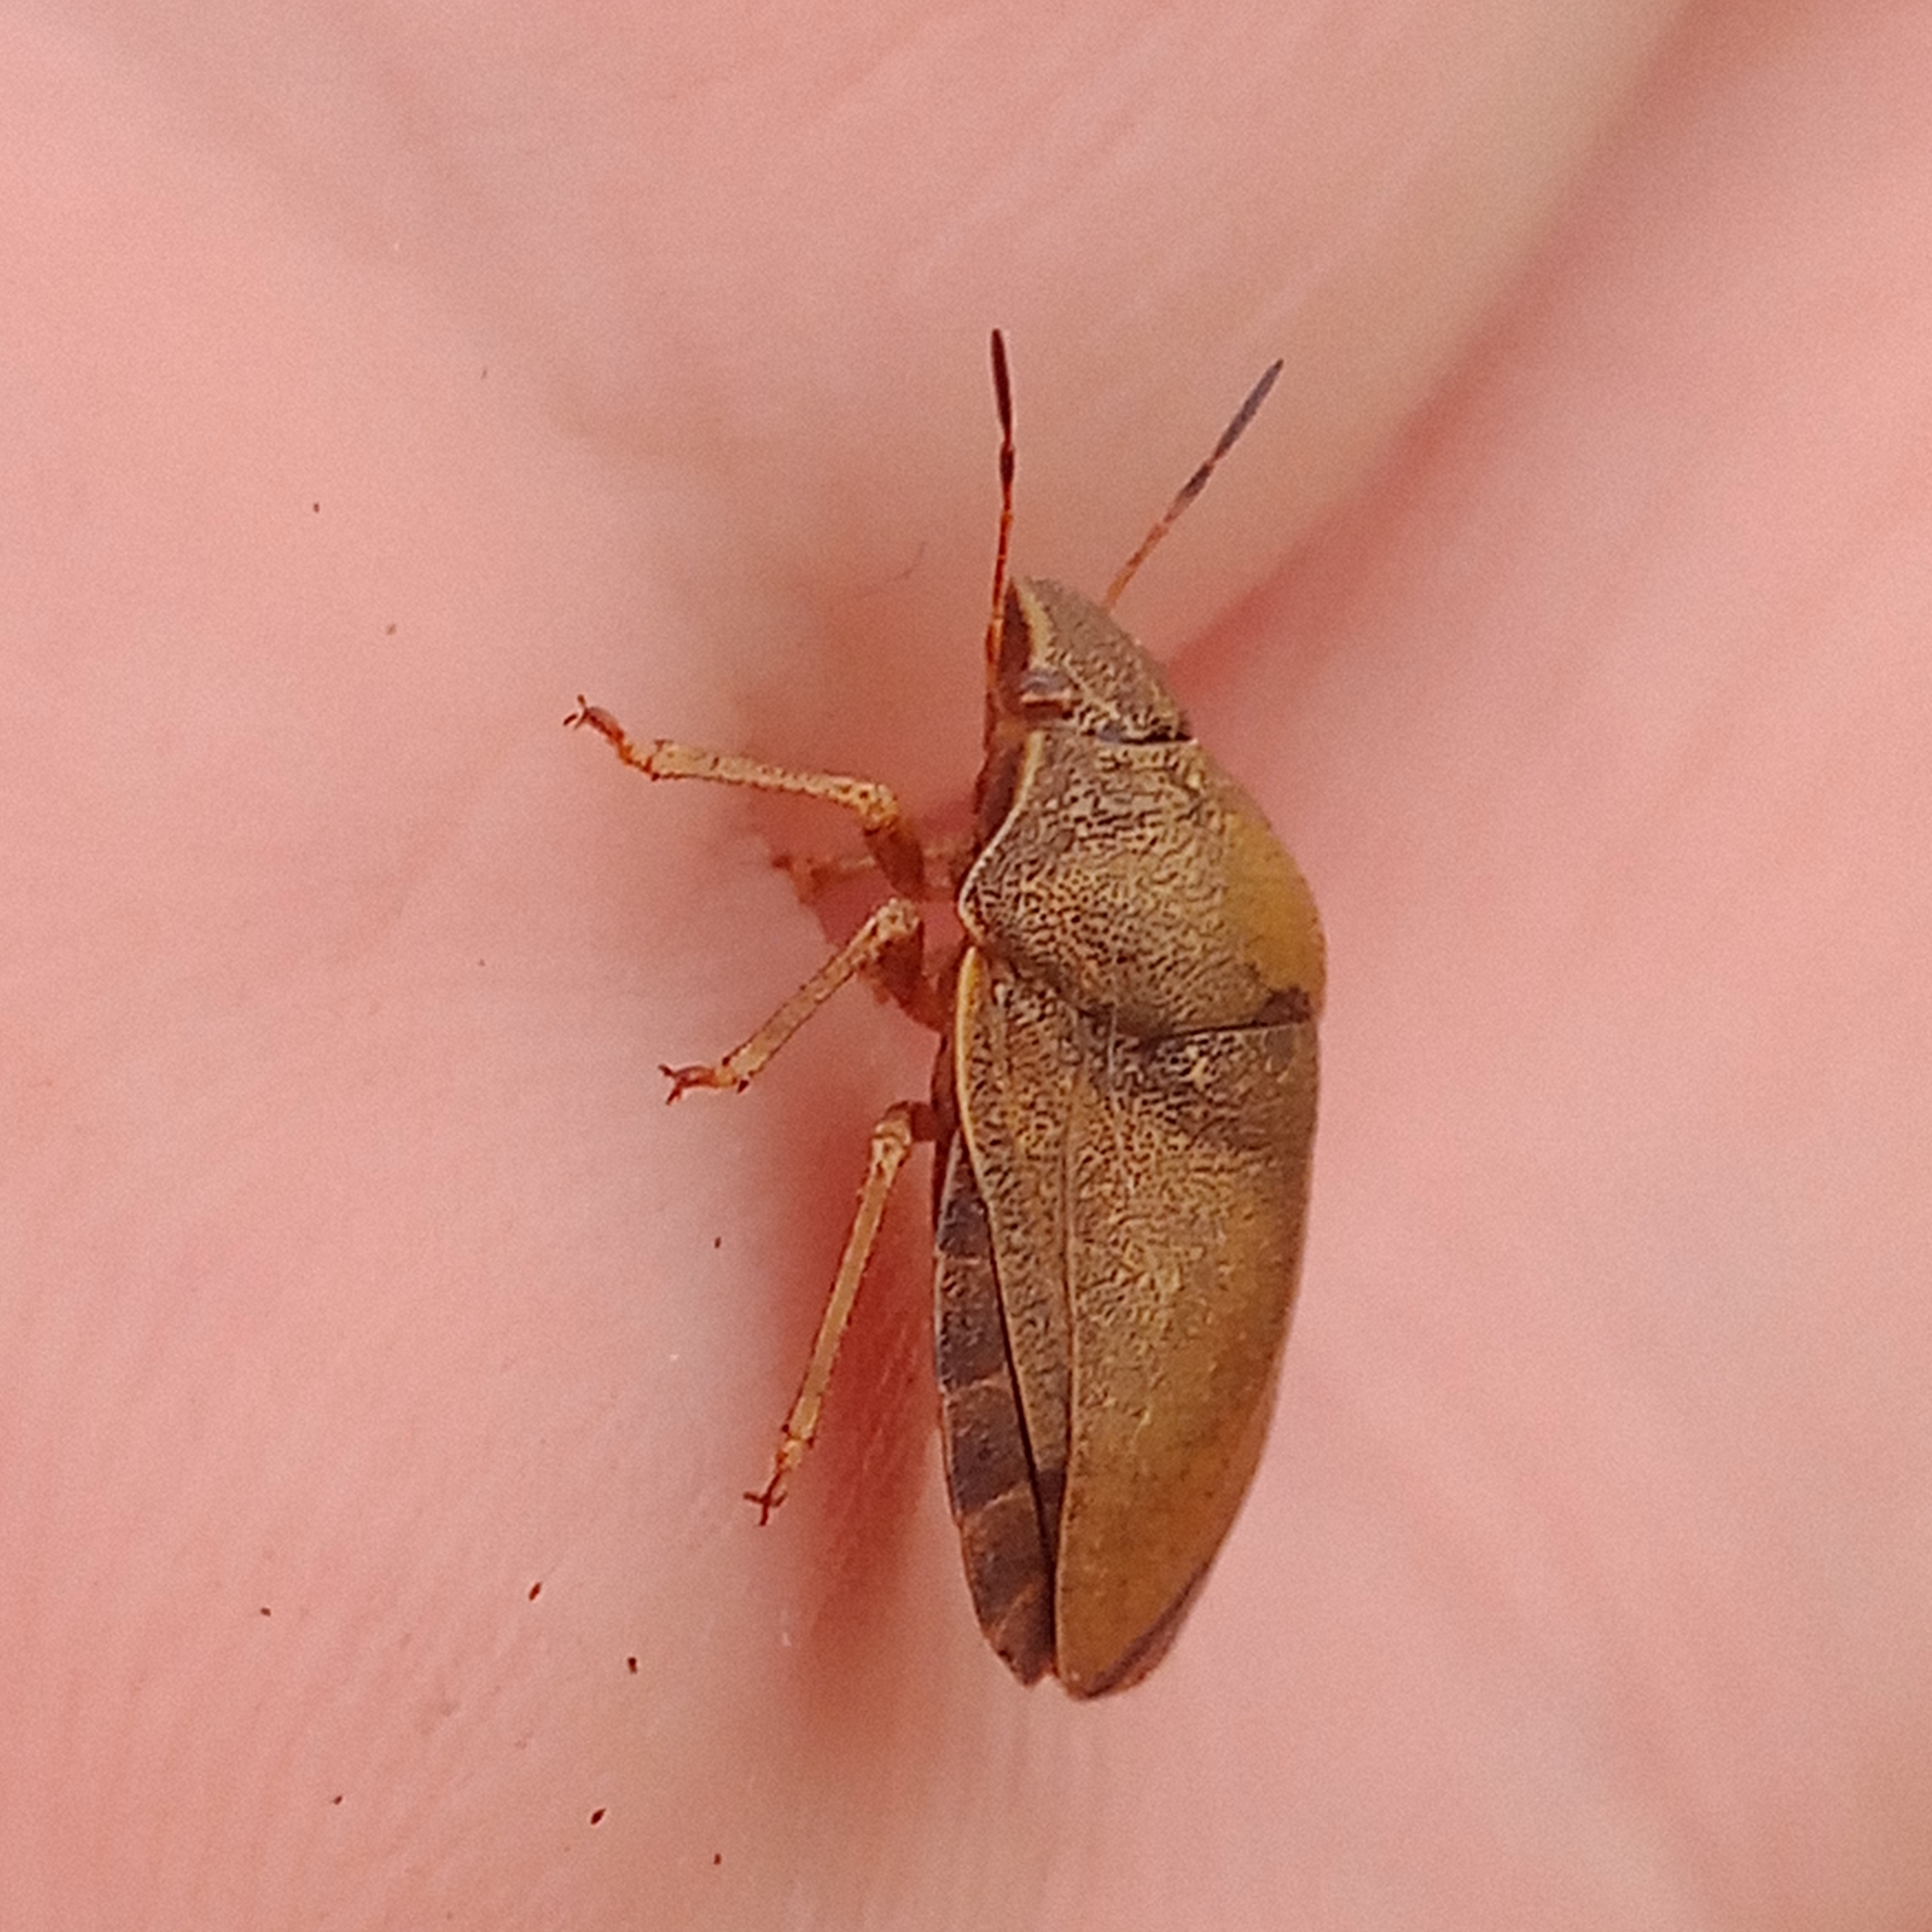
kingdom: Animalia
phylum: Arthropoda
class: Insecta
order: Hemiptera
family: Scutelleridae
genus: Eurygaster
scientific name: Eurygaster testudinaria
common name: Tortoise bug
